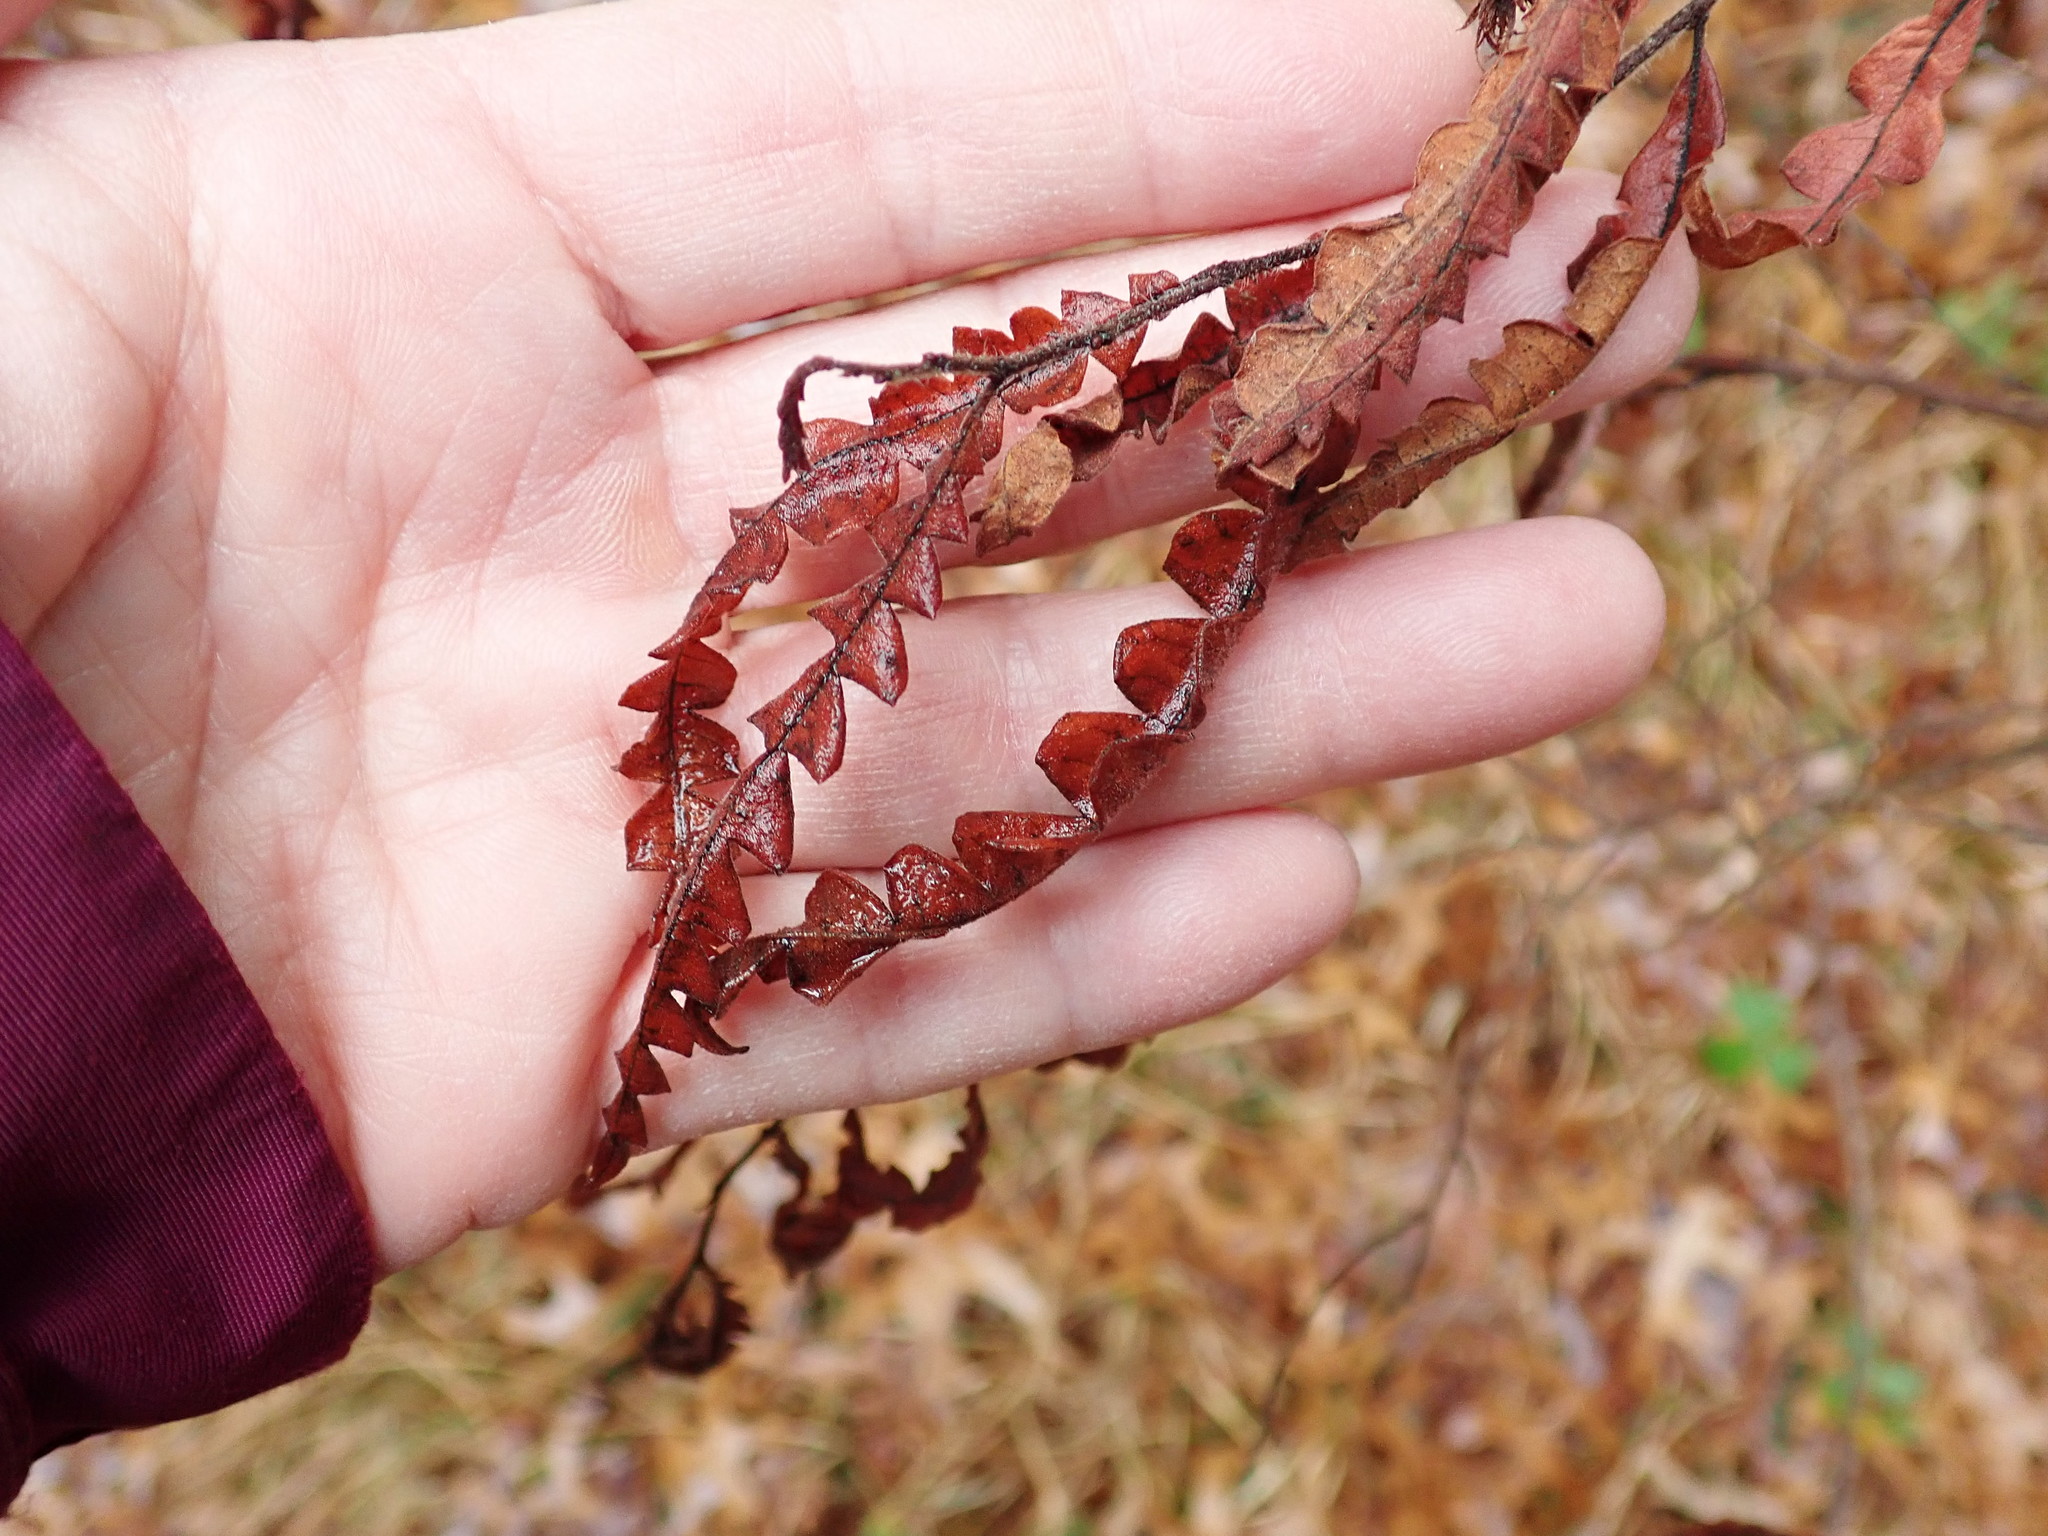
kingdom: Plantae
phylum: Tracheophyta
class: Magnoliopsida
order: Fagales
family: Myricaceae
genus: Comptonia
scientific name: Comptonia peregrina
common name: Sweet-fern
